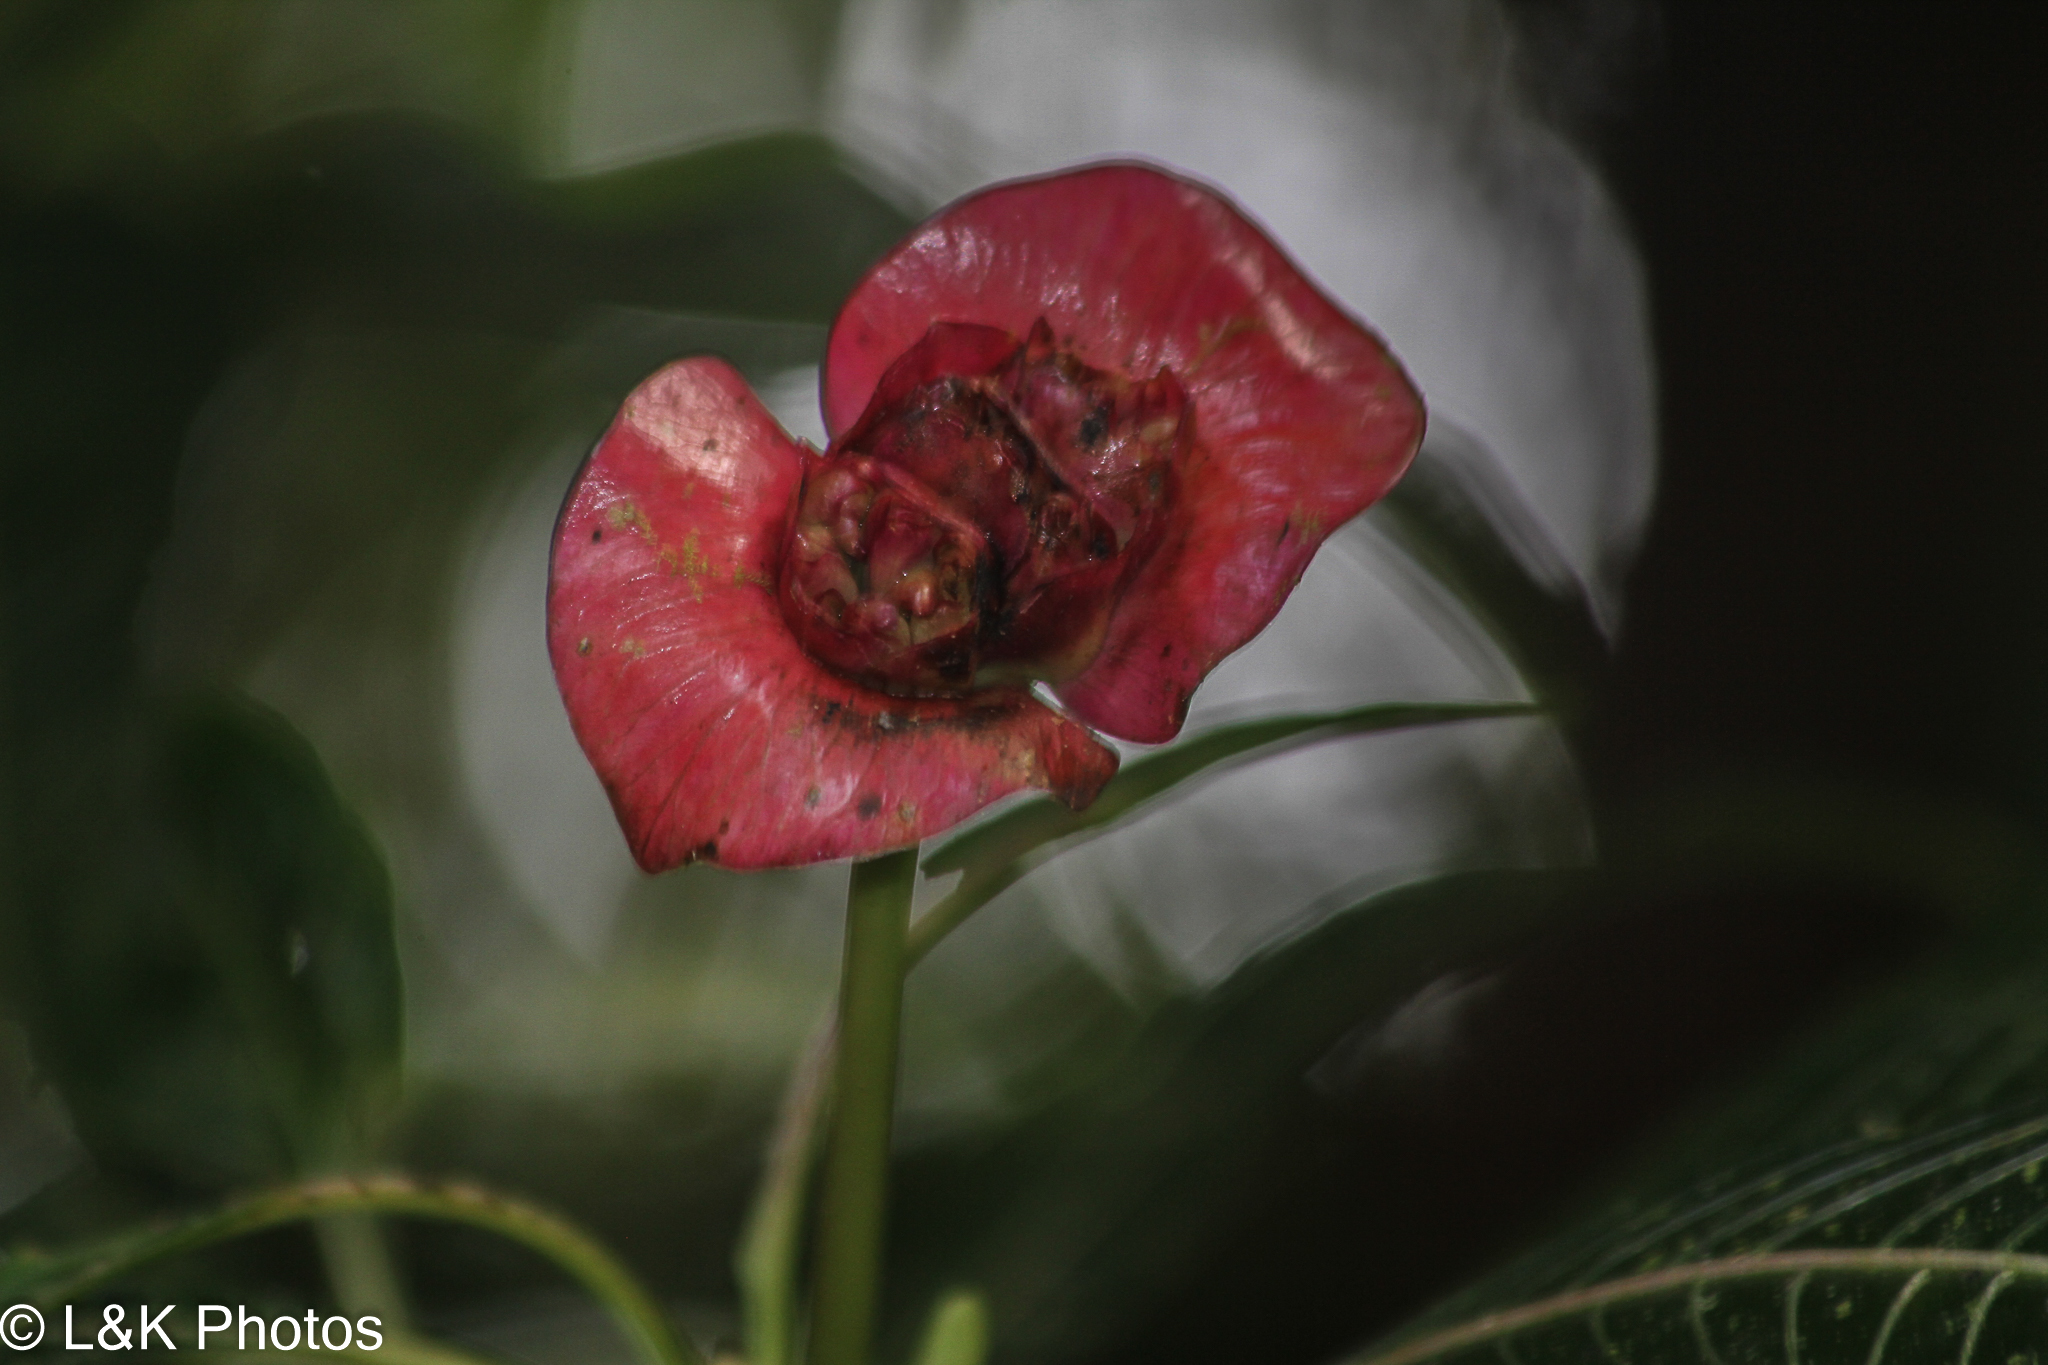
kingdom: Plantae
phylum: Tracheophyta
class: Magnoliopsida
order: Gentianales
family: Rubiaceae
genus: Palicourea
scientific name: Palicourea elata
